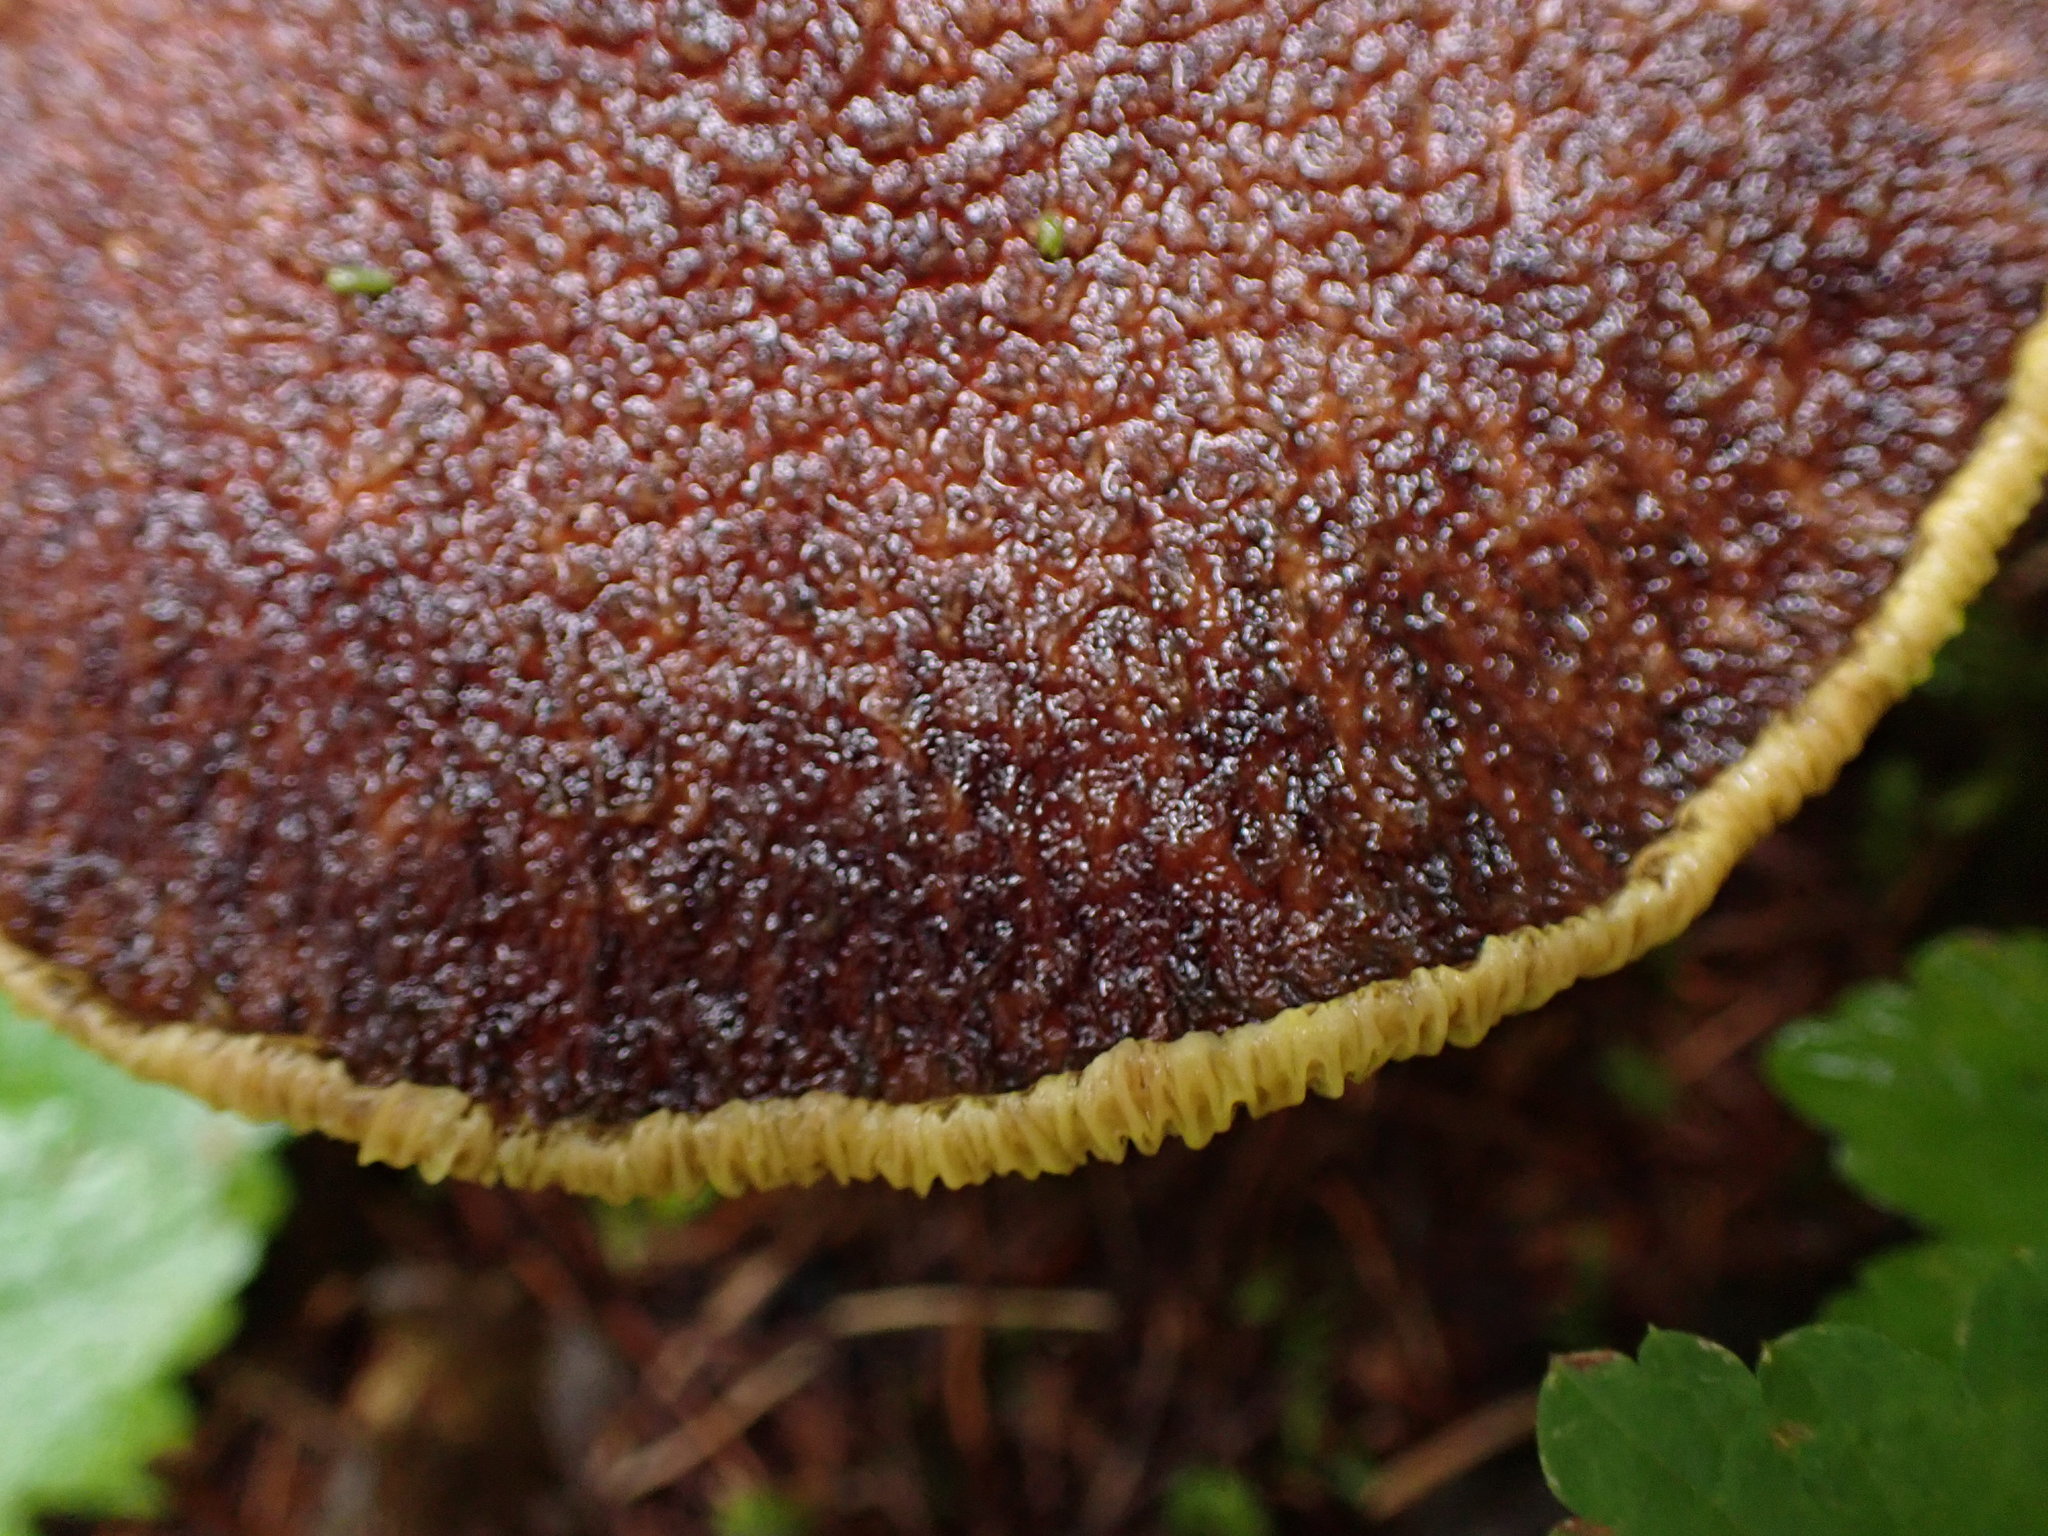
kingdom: Fungi
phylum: Basidiomycota
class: Agaricomycetes
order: Boletales
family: Suillaceae
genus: Boletinus
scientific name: Boletinus ampliporus
